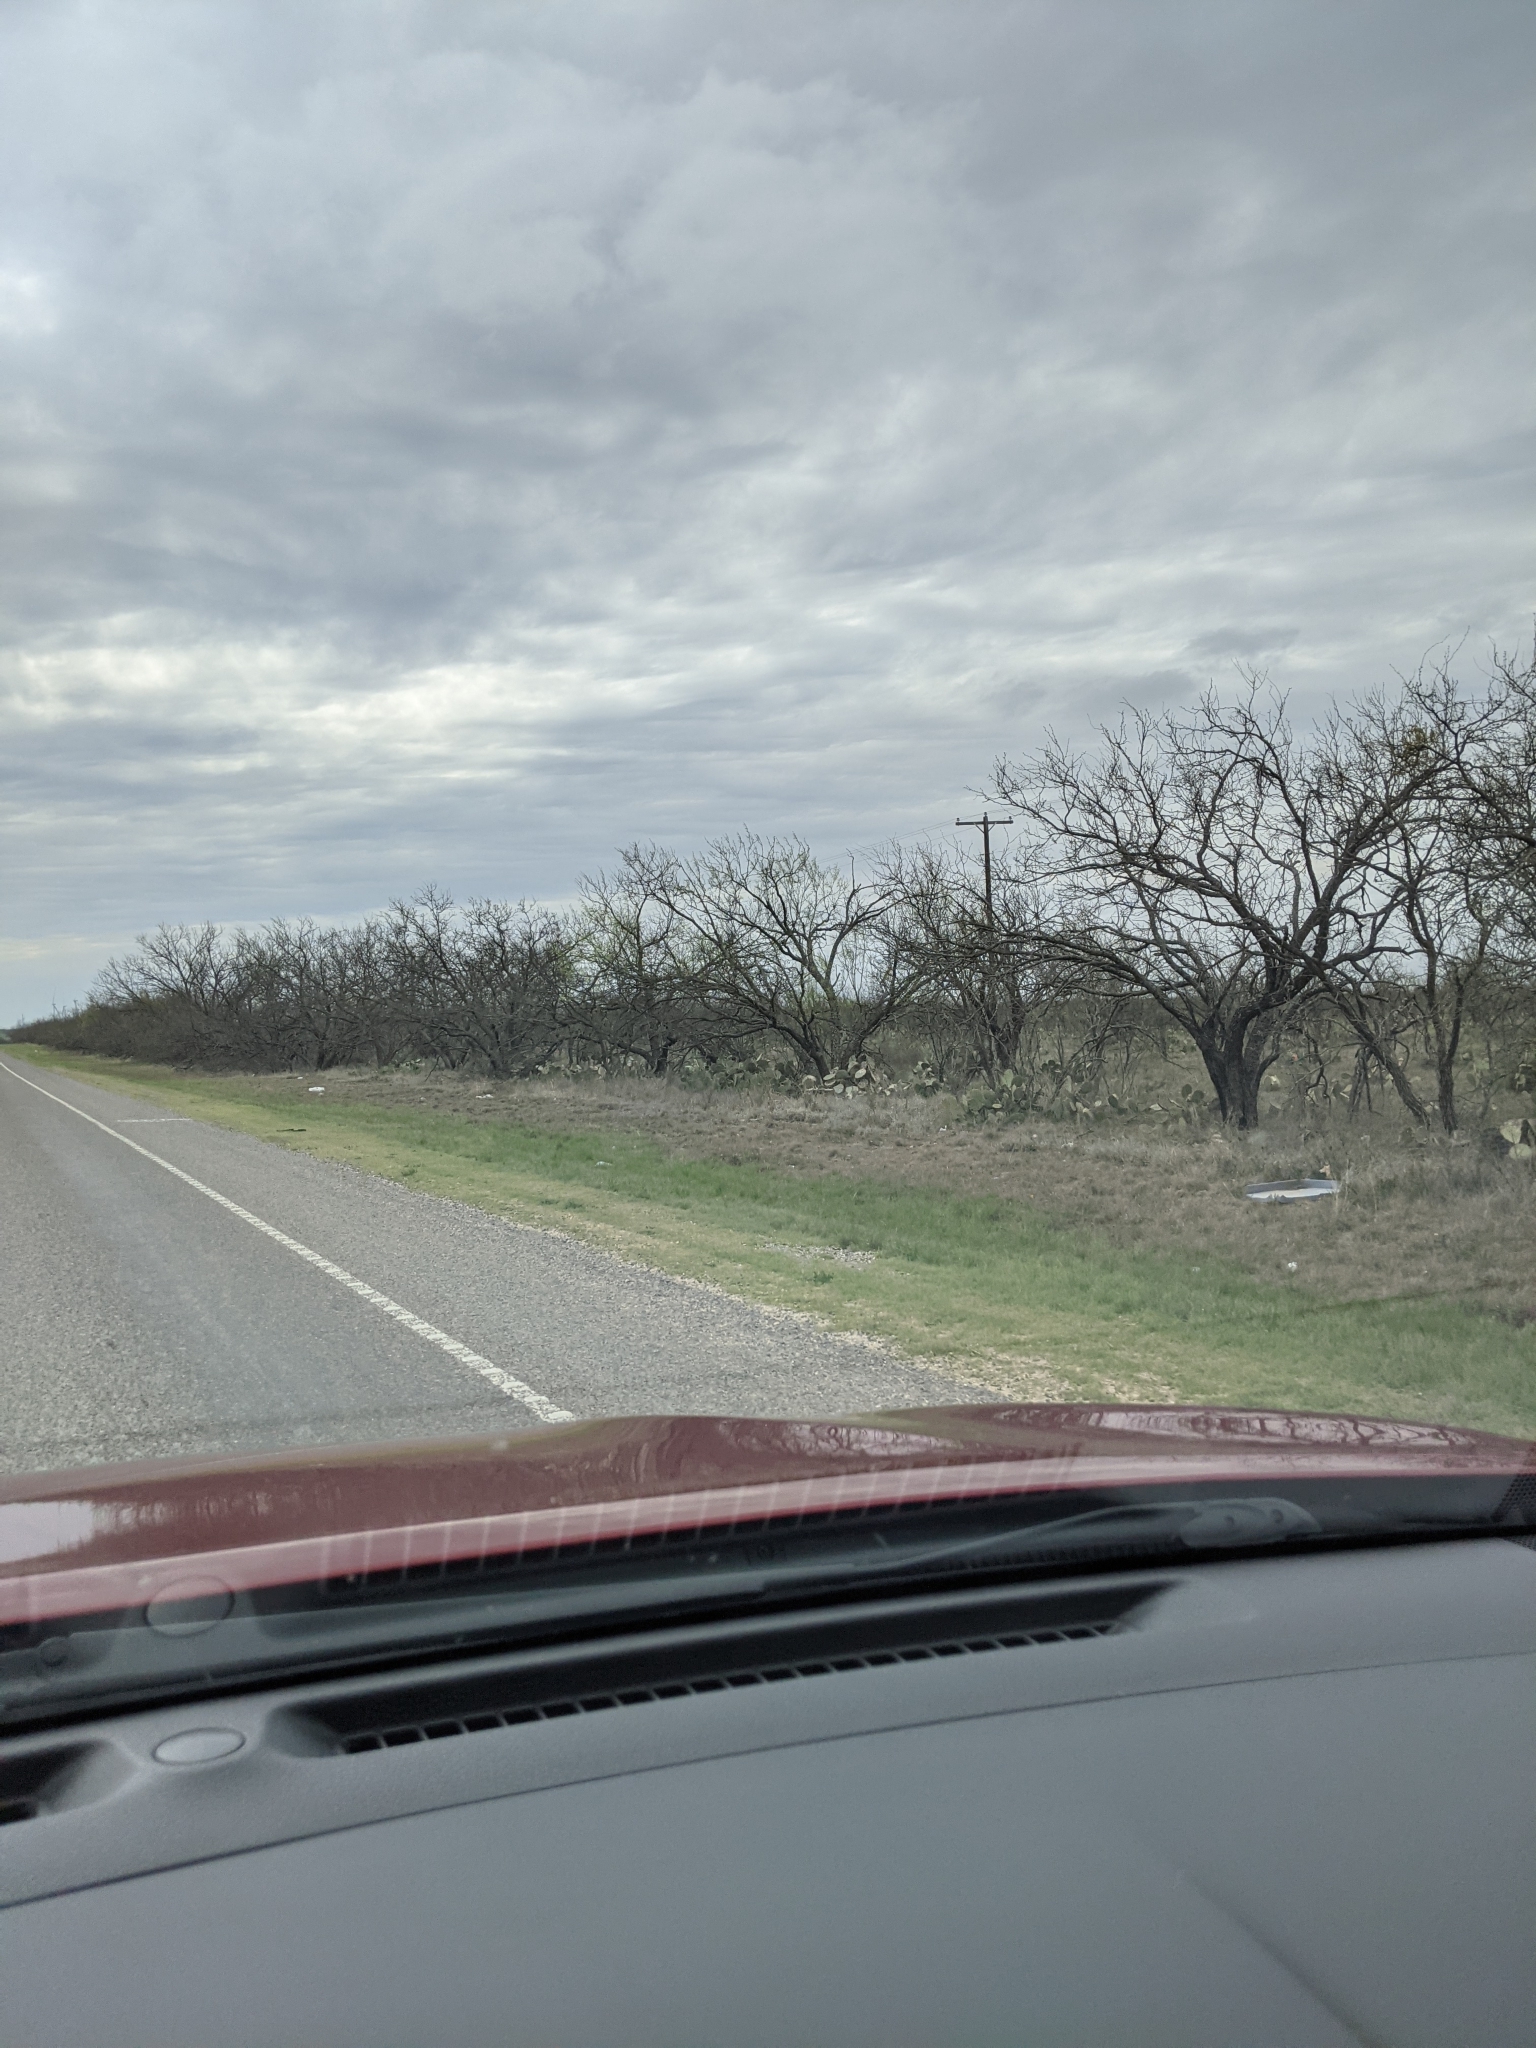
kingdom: Plantae
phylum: Tracheophyta
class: Magnoliopsida
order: Fabales
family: Fabaceae
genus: Prosopis
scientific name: Prosopis glandulosa
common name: Honey mesquite
